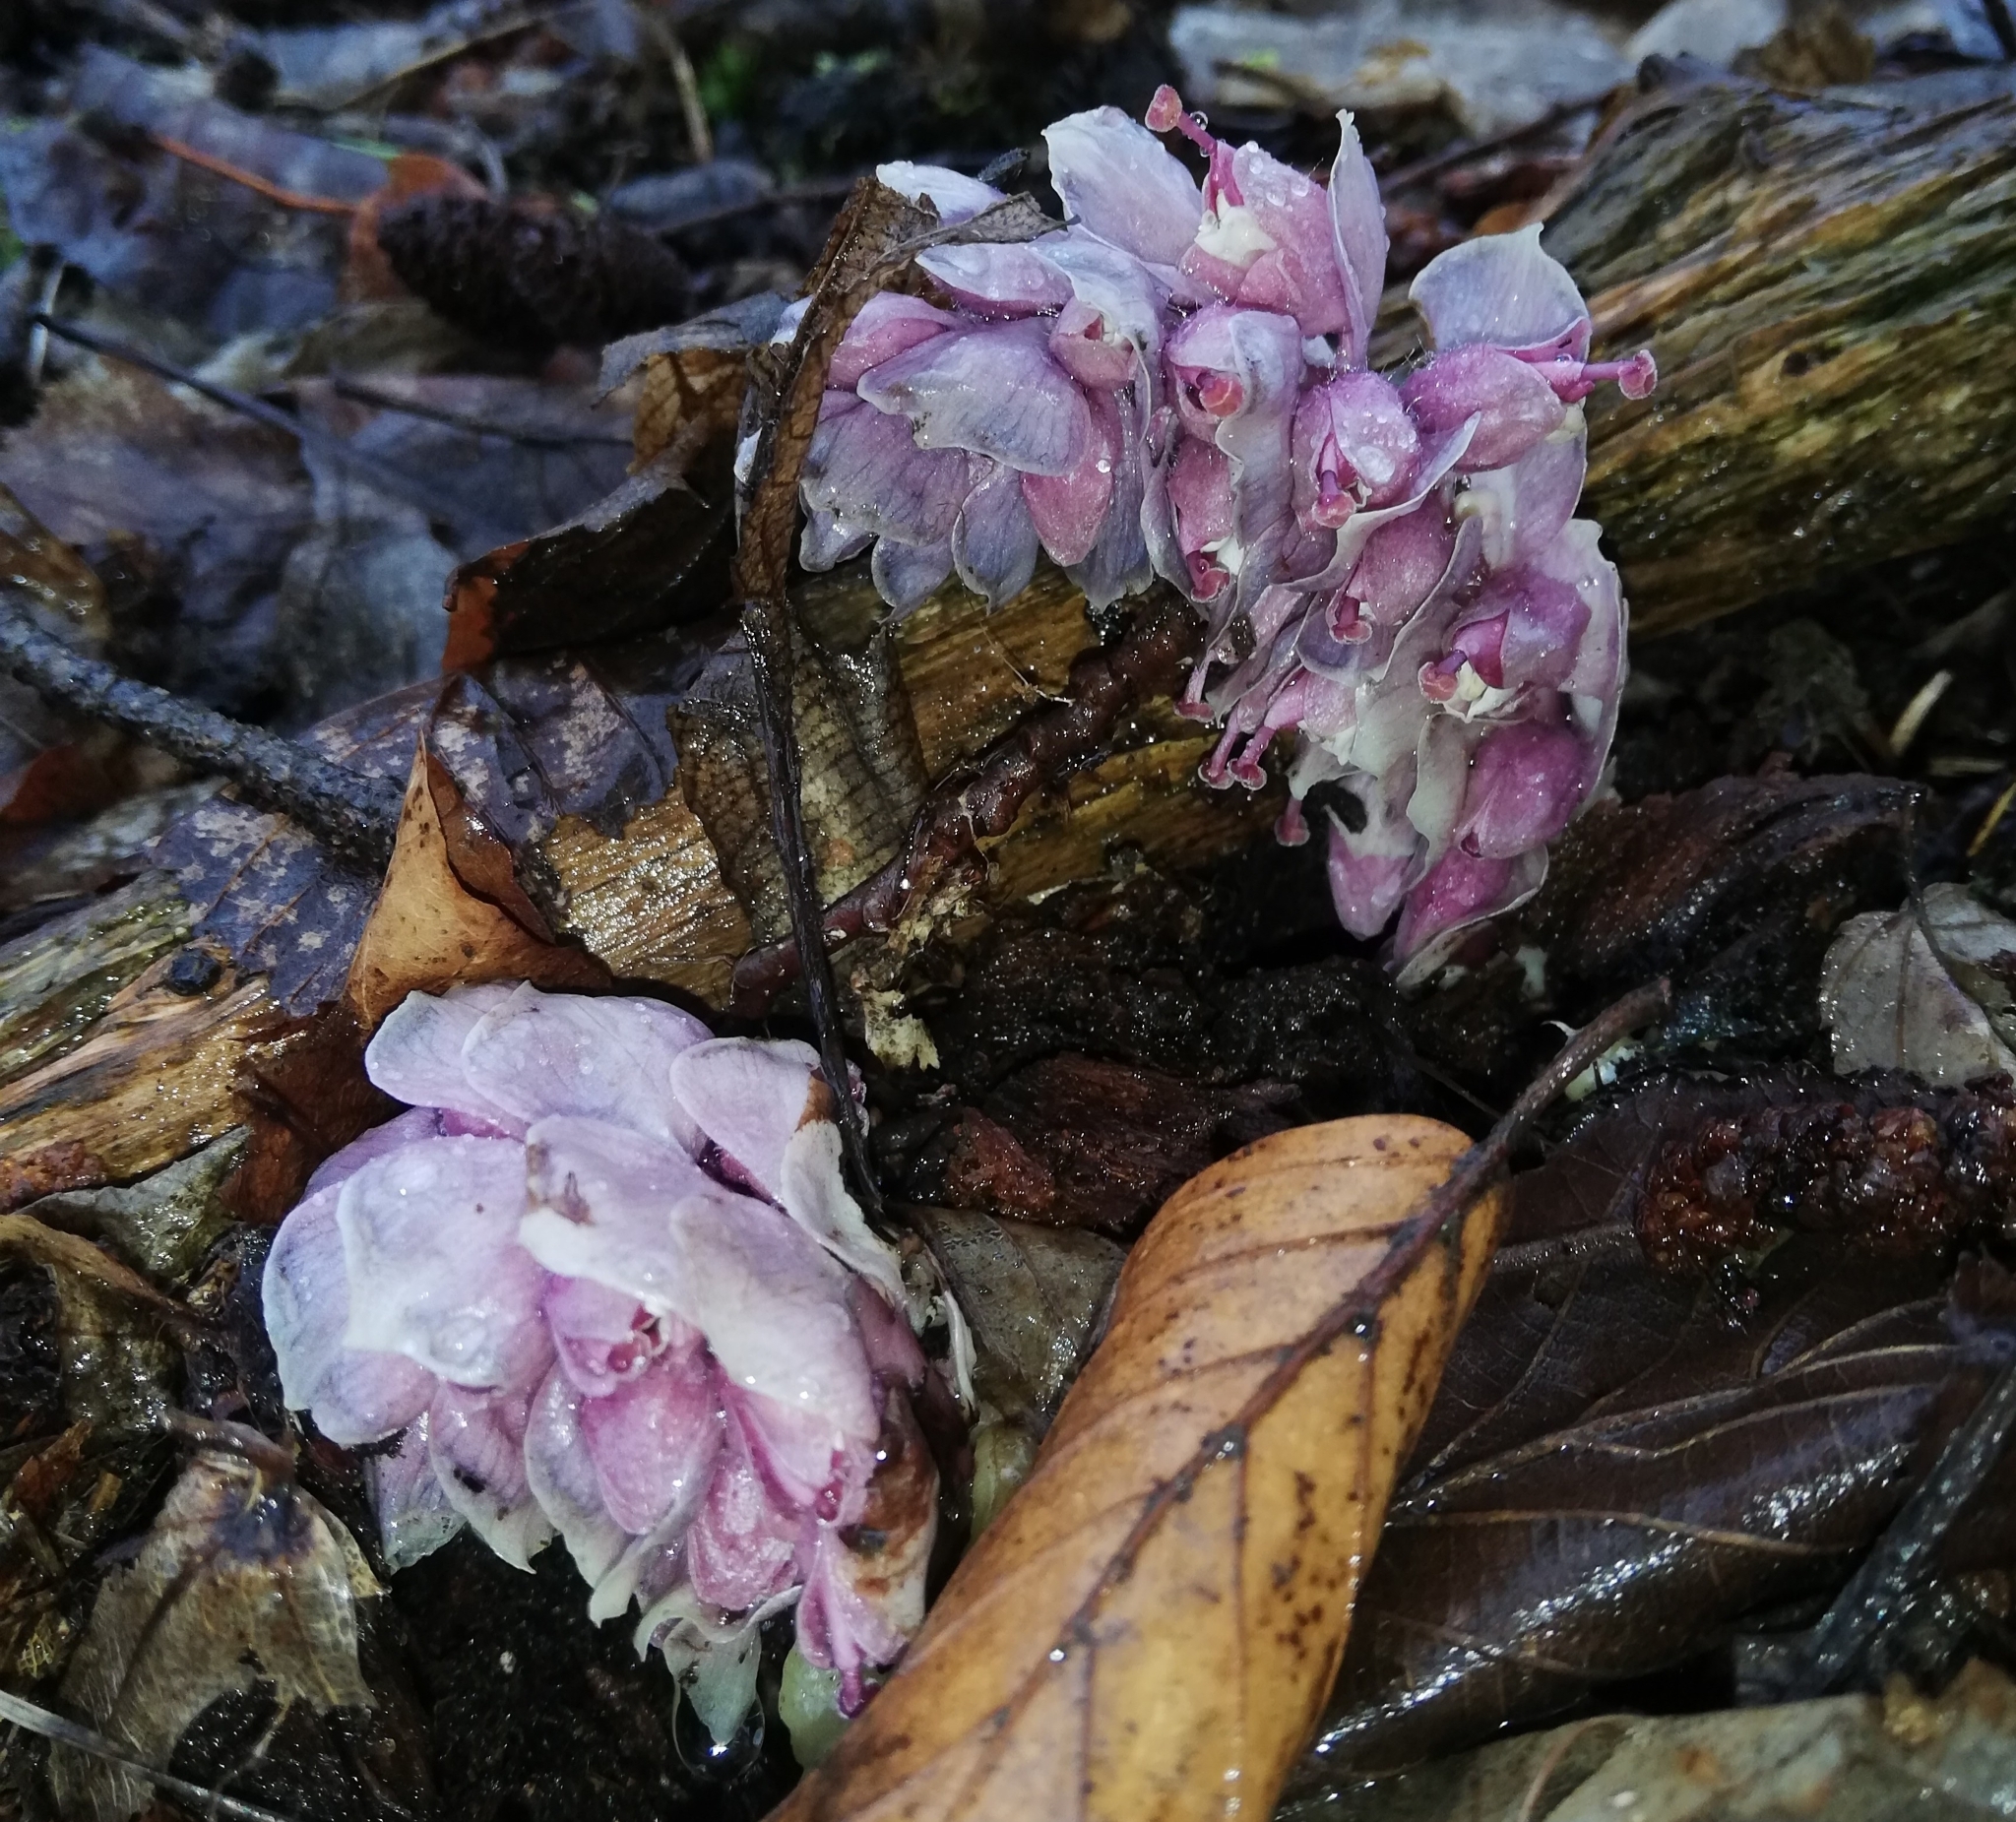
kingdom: Plantae
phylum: Tracheophyta
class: Magnoliopsida
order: Lamiales
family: Orobanchaceae
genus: Lathraea
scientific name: Lathraea squamaria
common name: Toothwort
